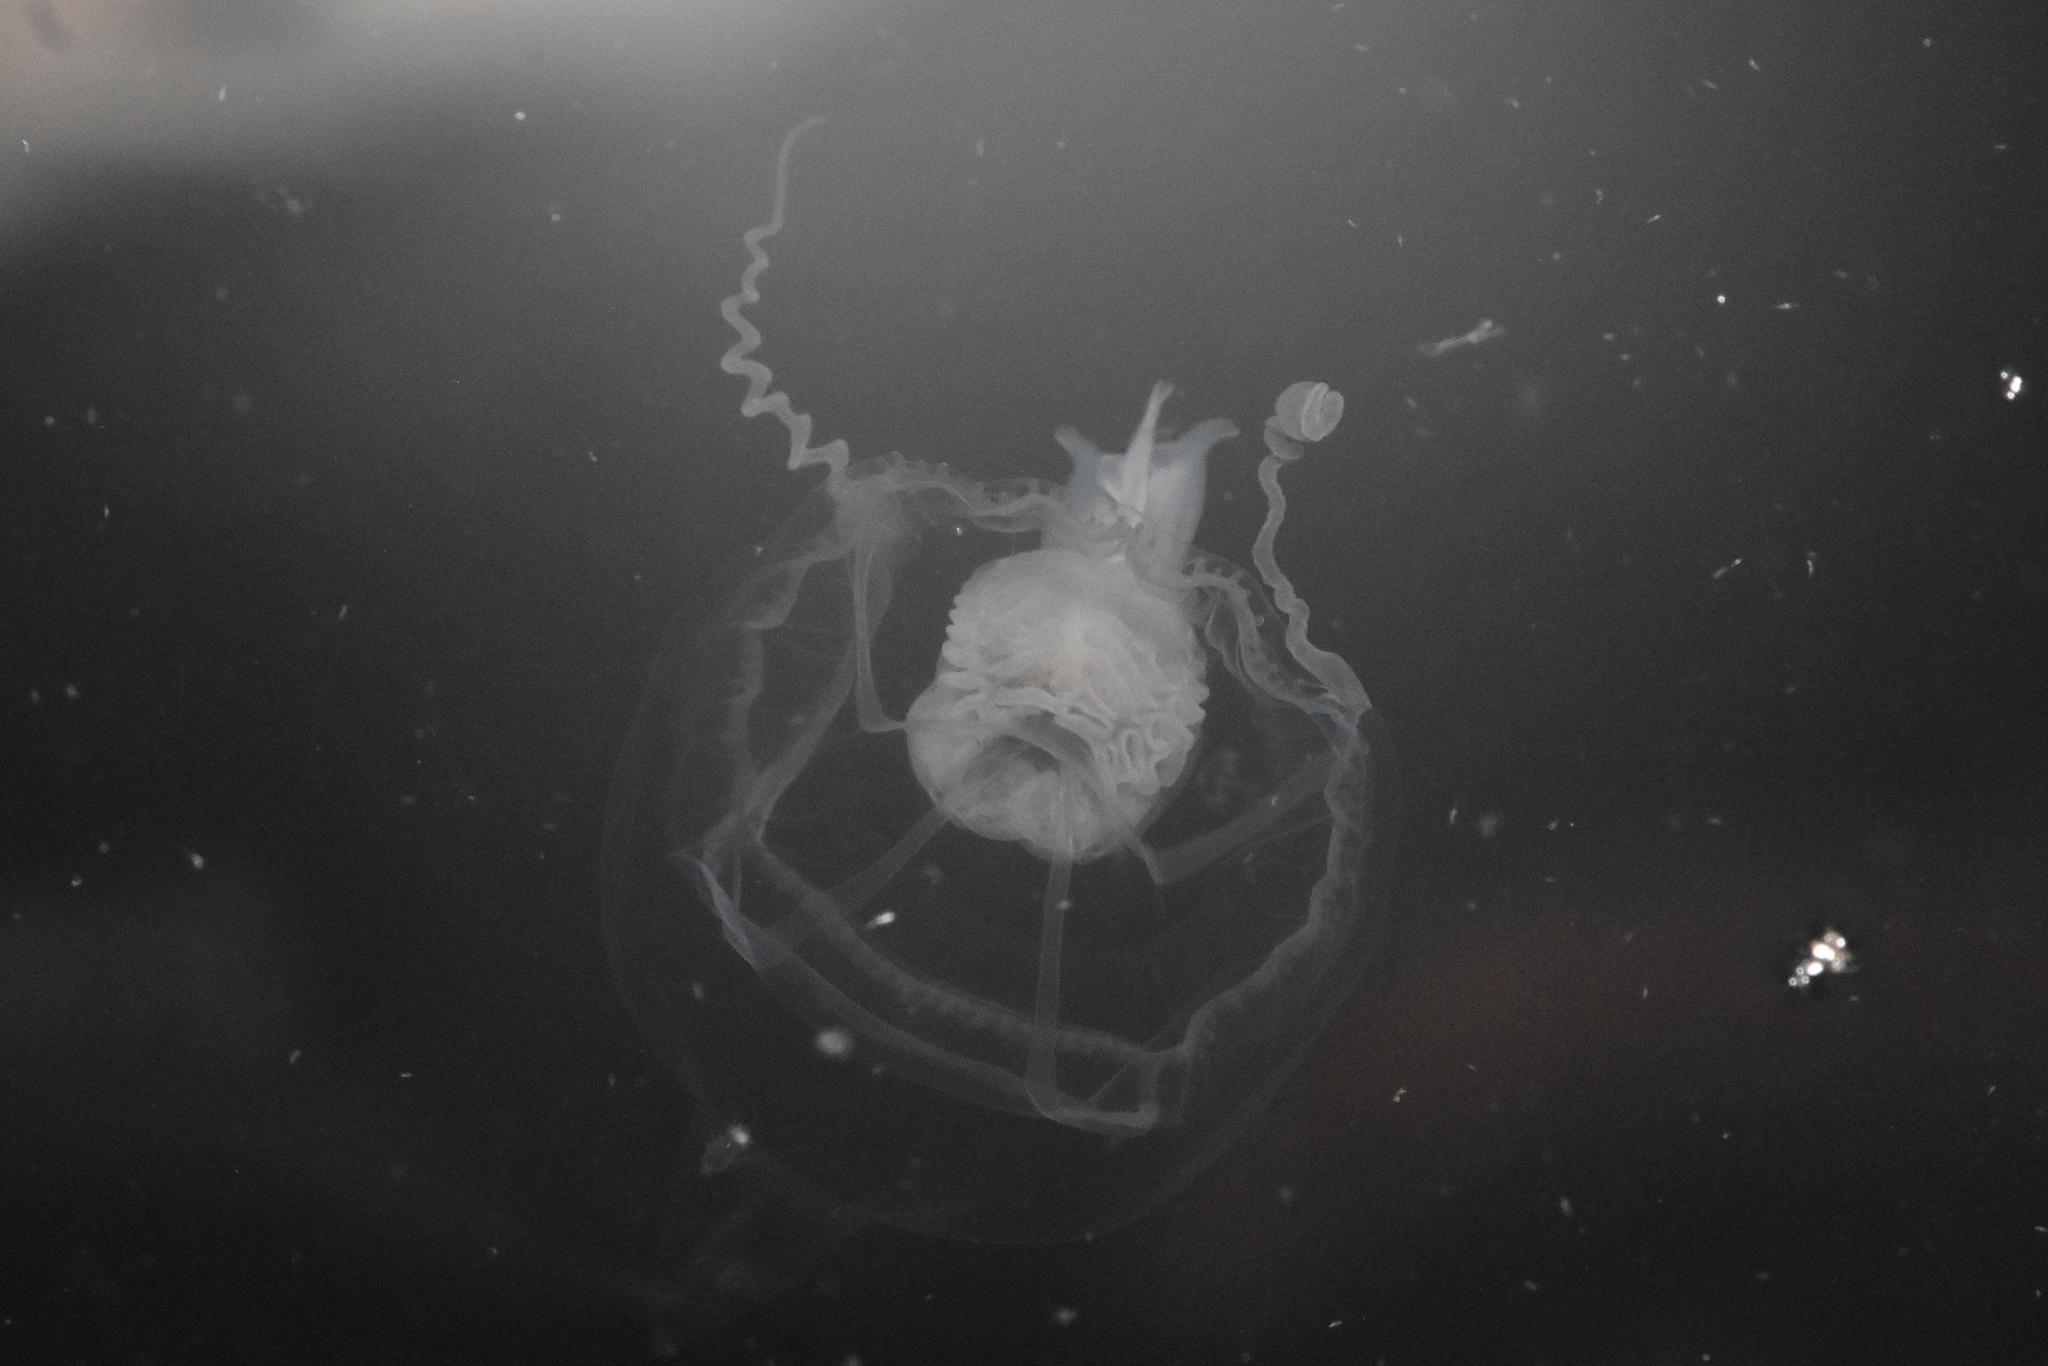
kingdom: Animalia
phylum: Cnidaria
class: Hydrozoa
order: Anthoathecata
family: Pandeidae
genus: Stomotoca
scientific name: Stomotoca atra
